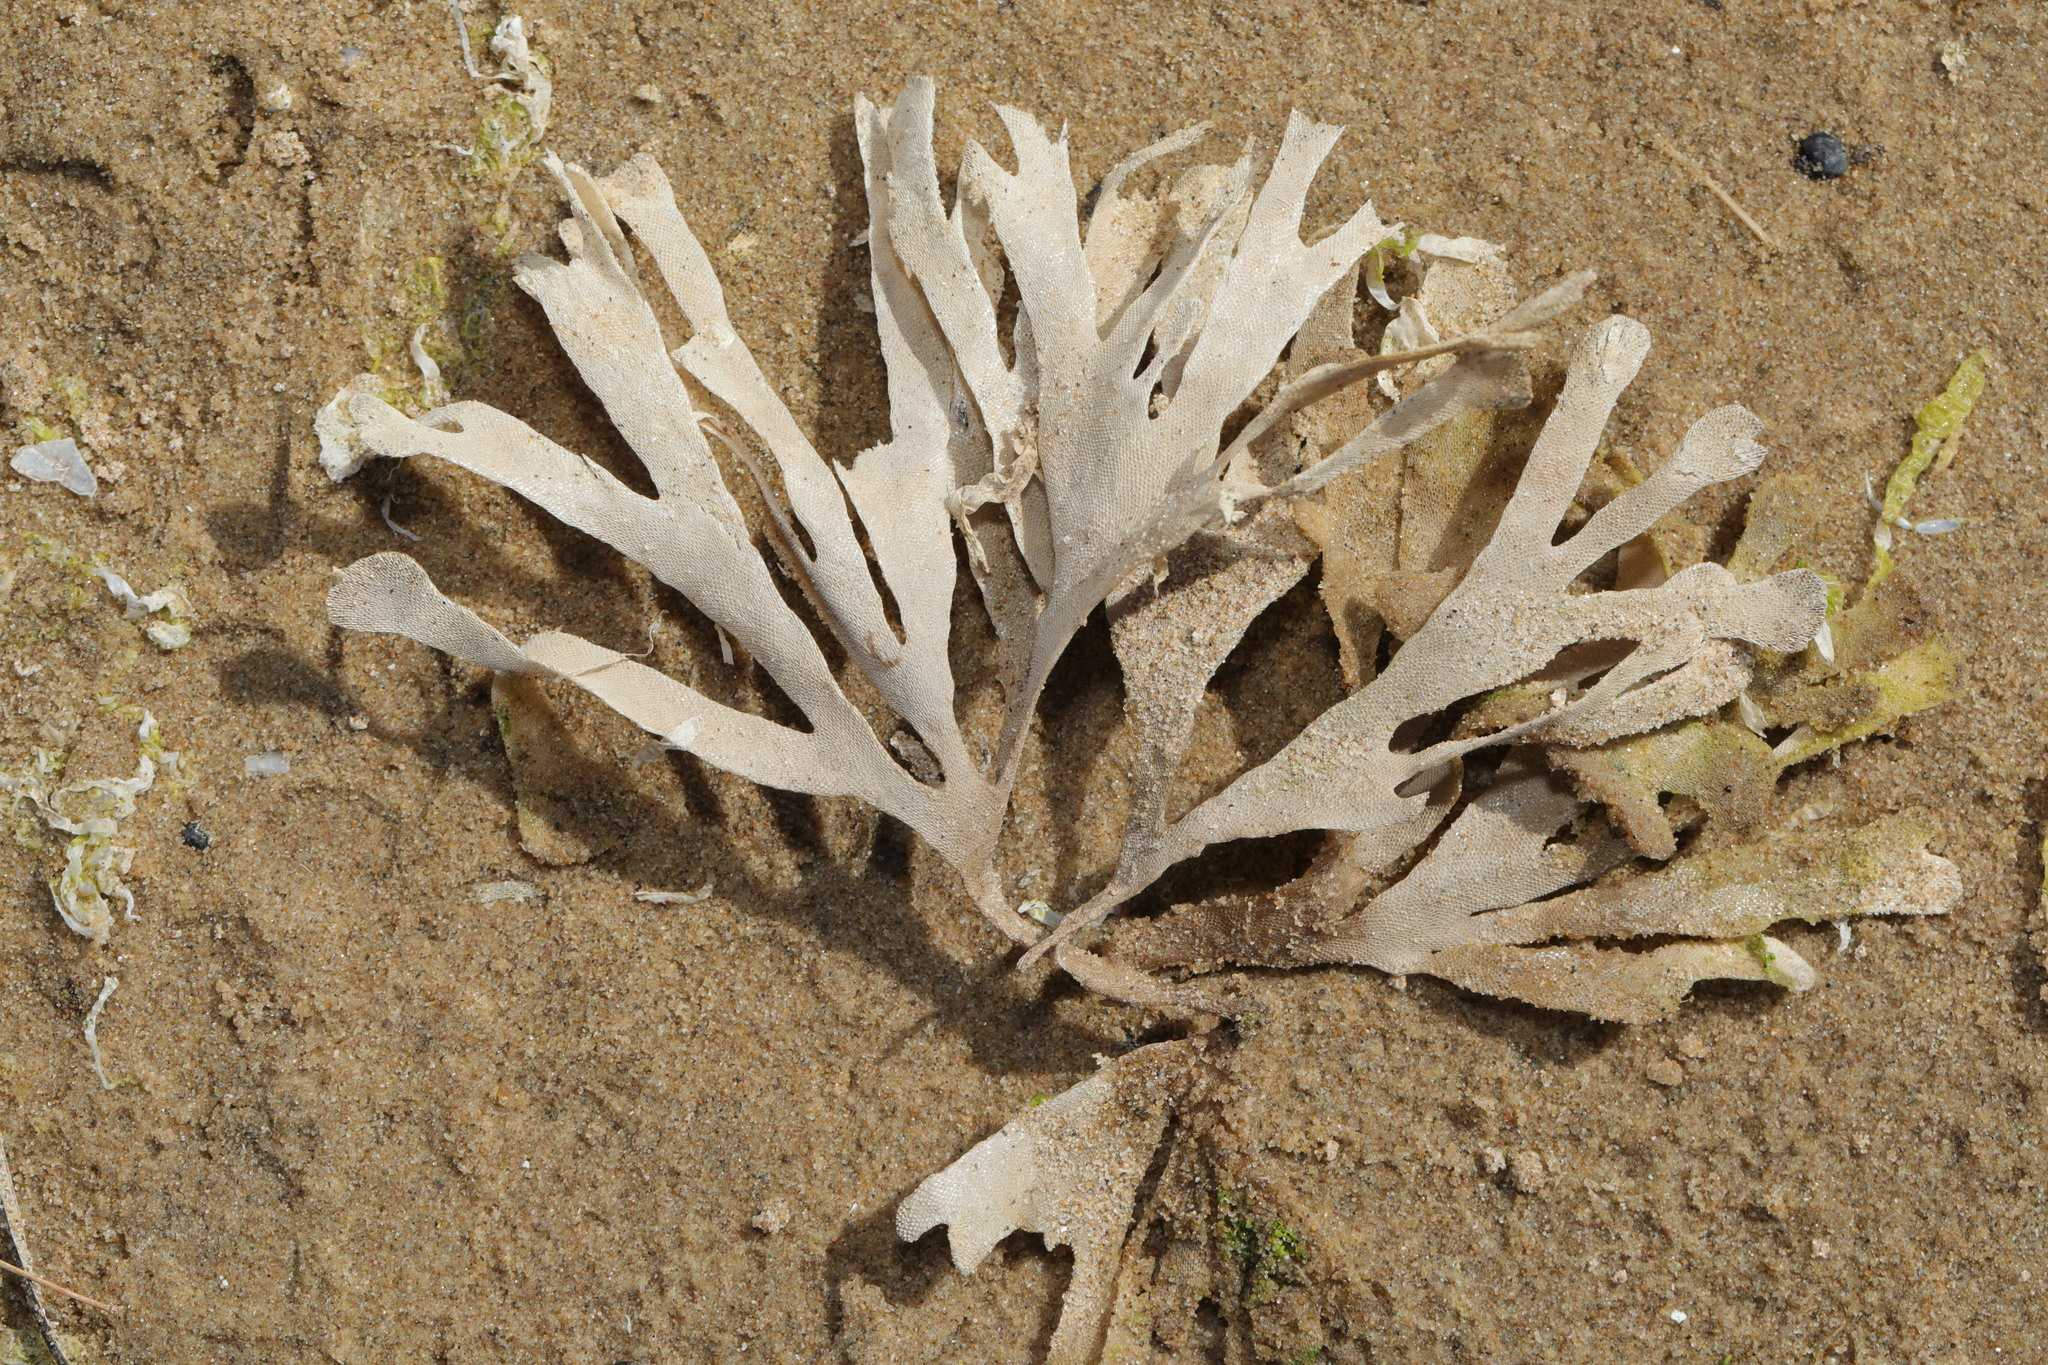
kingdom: Animalia
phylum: Bryozoa
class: Gymnolaemata
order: Cheilostomatida
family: Flustridae
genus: Flustra
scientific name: Flustra foliacea
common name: Hornwrack
